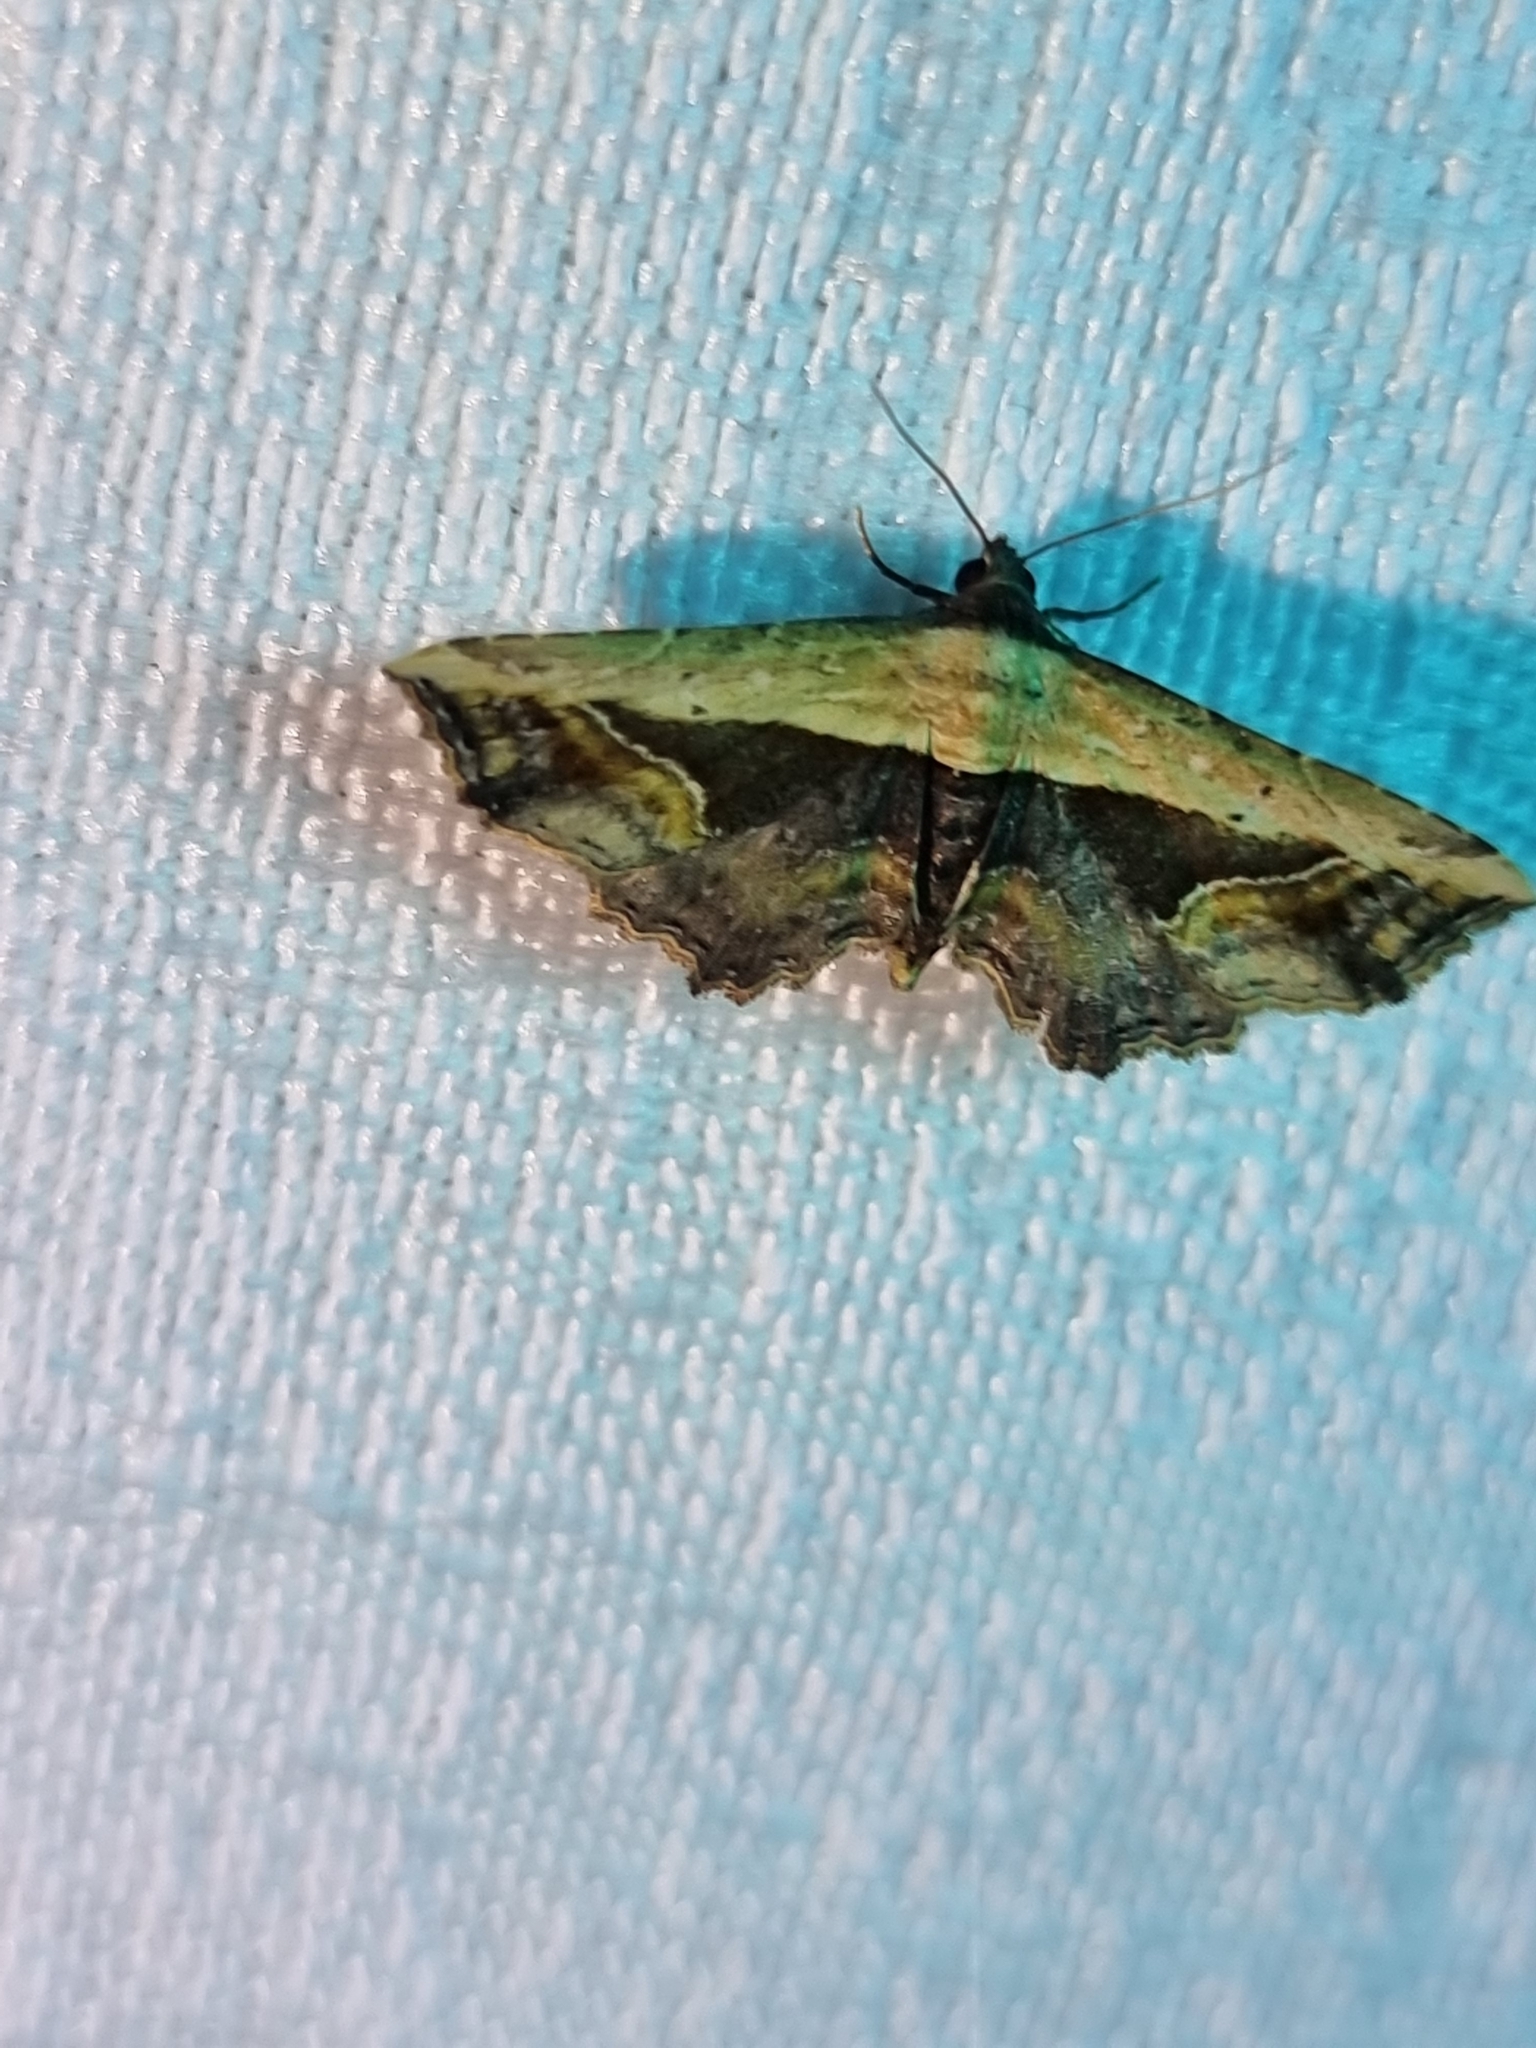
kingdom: Animalia
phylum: Arthropoda
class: Insecta
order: Lepidoptera
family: Noctuidae
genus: Ataboruza
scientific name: Ataboruza stragulata
